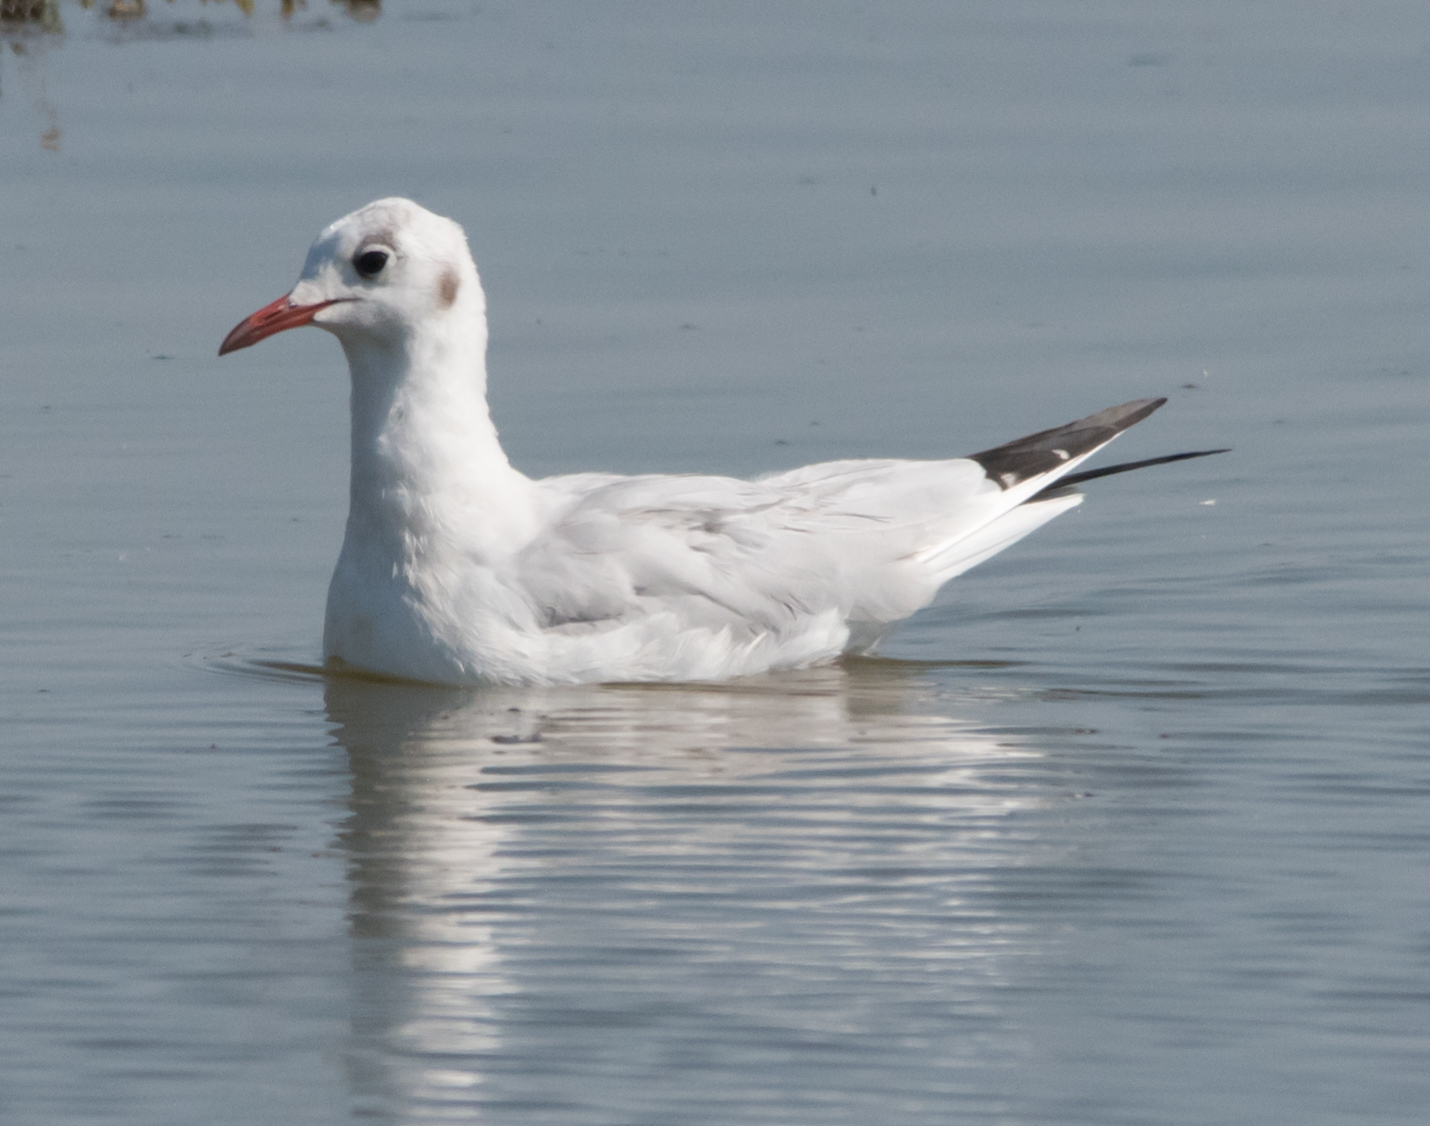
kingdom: Animalia
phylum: Chordata
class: Aves
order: Charadriiformes
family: Laridae
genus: Chroicocephalus
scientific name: Chroicocephalus ridibundus
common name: Black-headed gull
